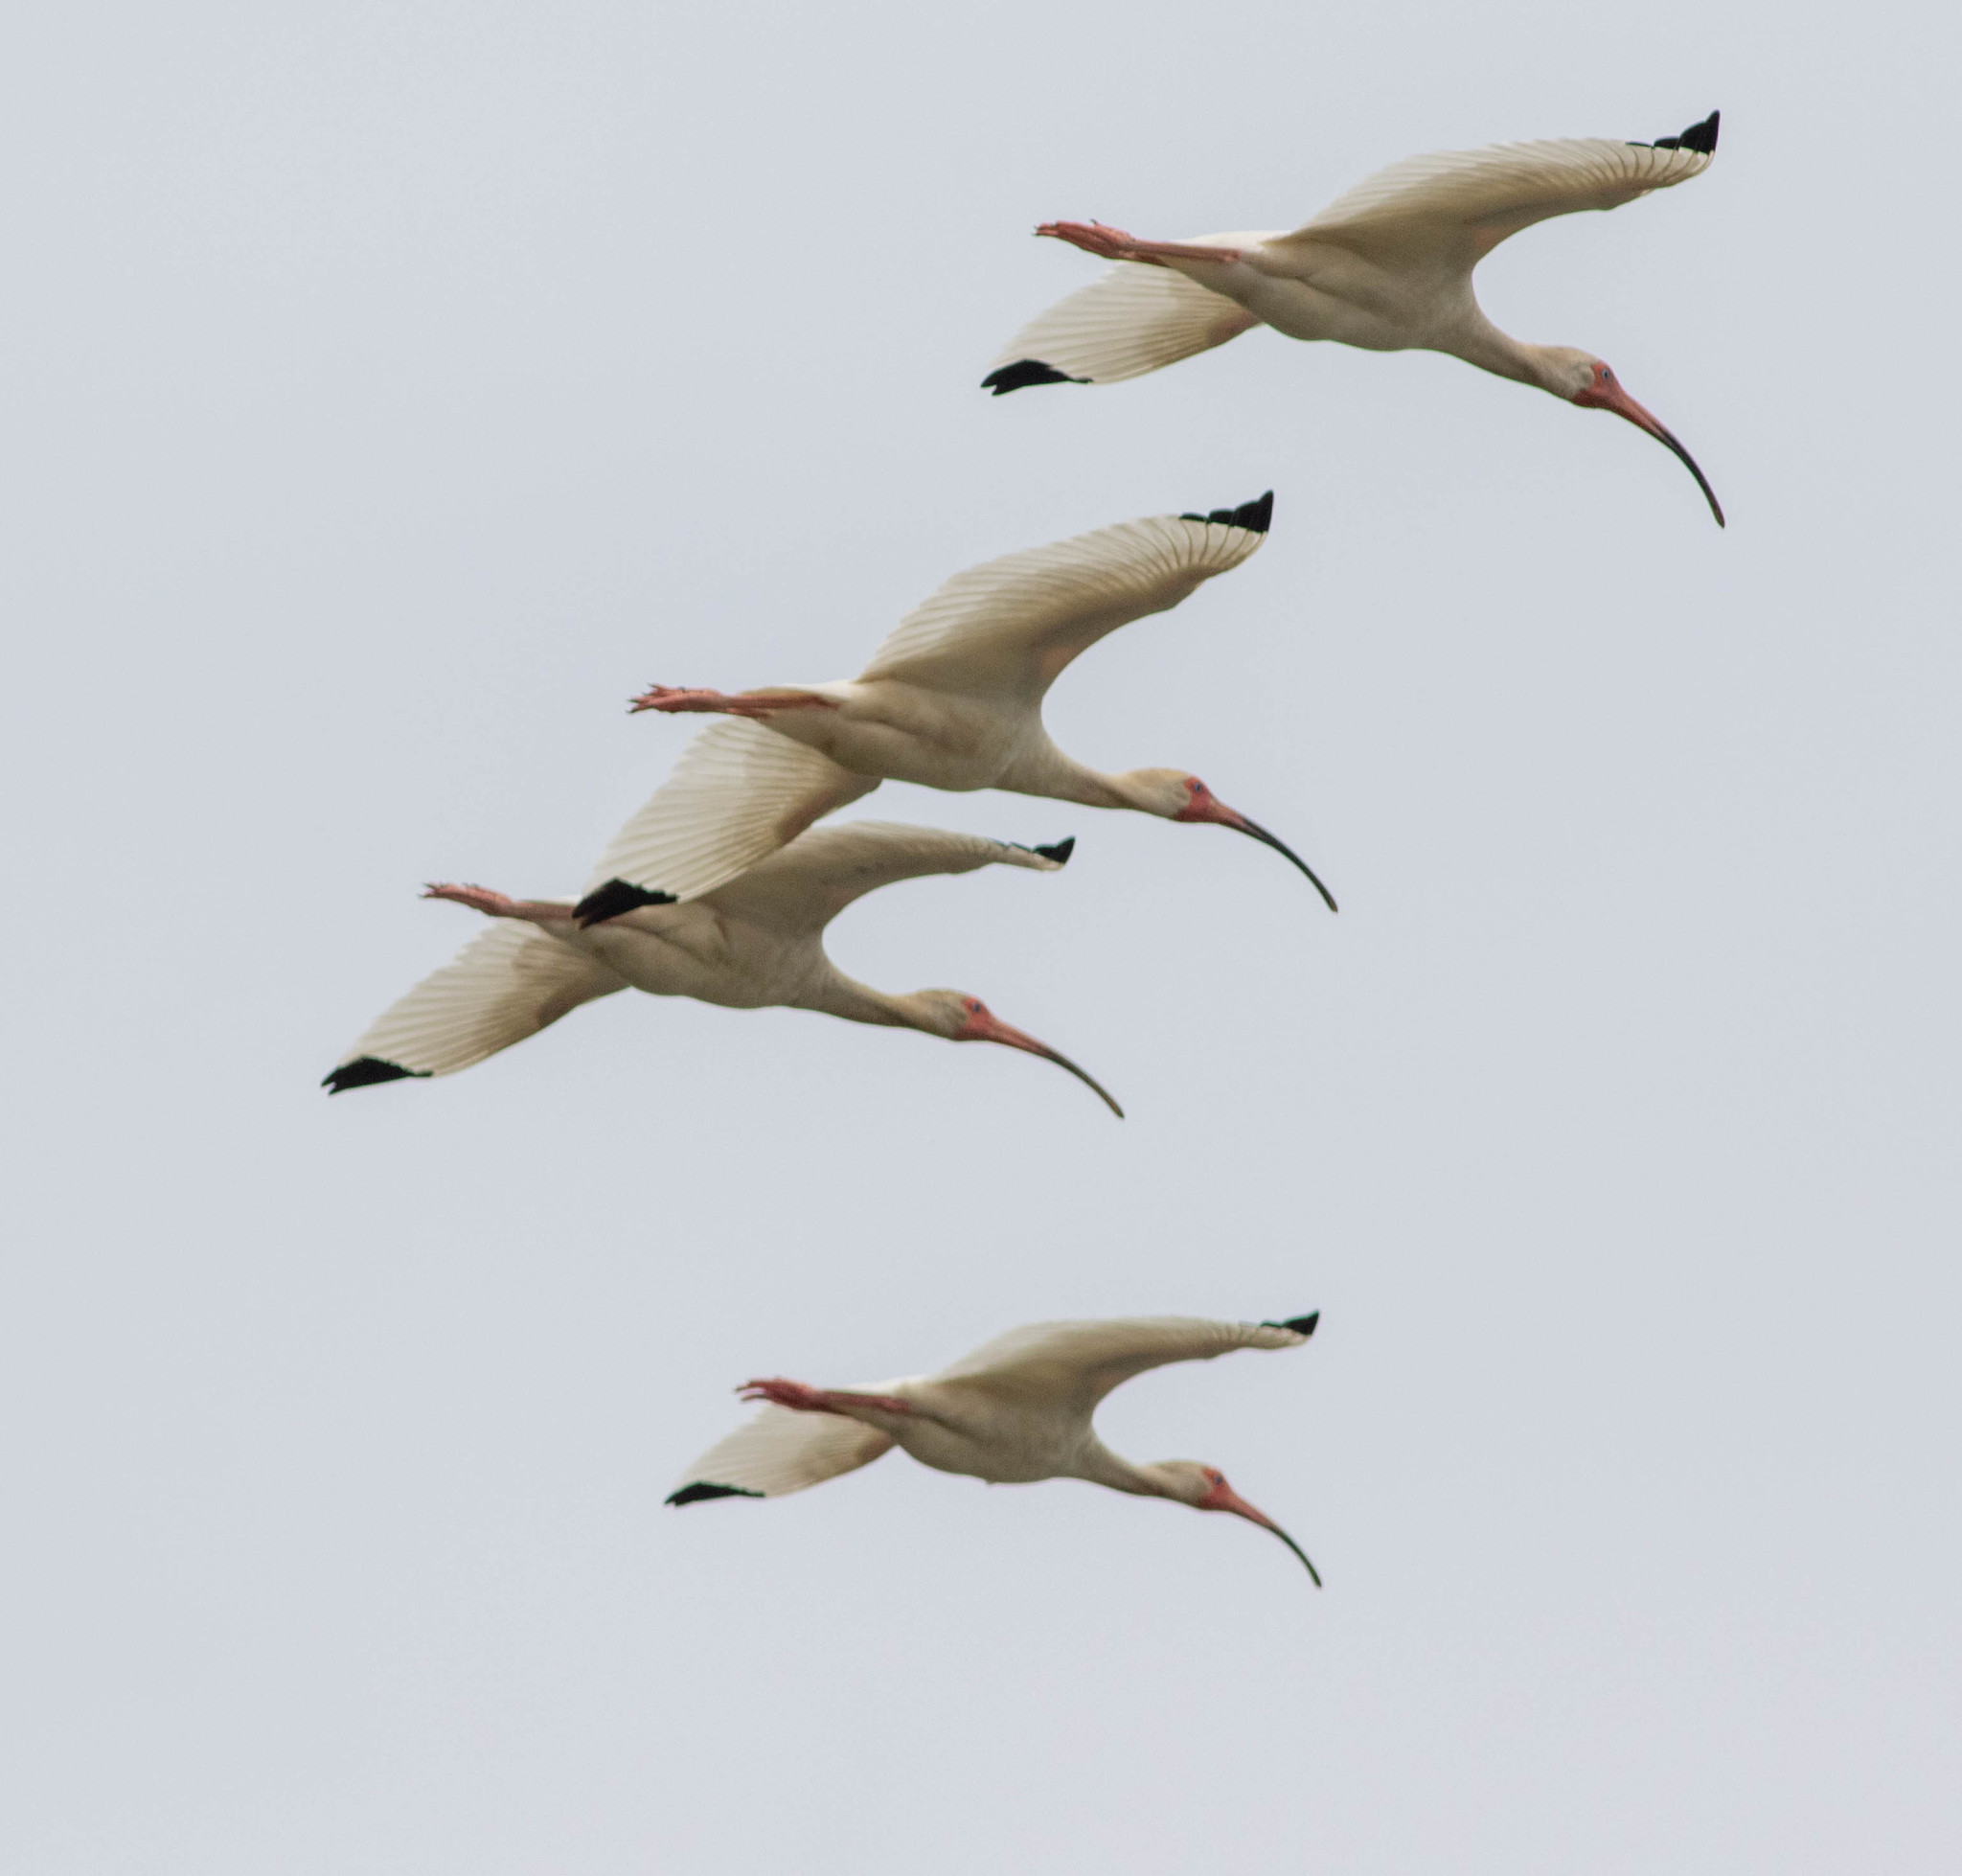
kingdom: Animalia
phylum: Chordata
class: Aves
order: Pelecaniformes
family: Threskiornithidae
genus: Eudocimus
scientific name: Eudocimus albus
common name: White ibis
